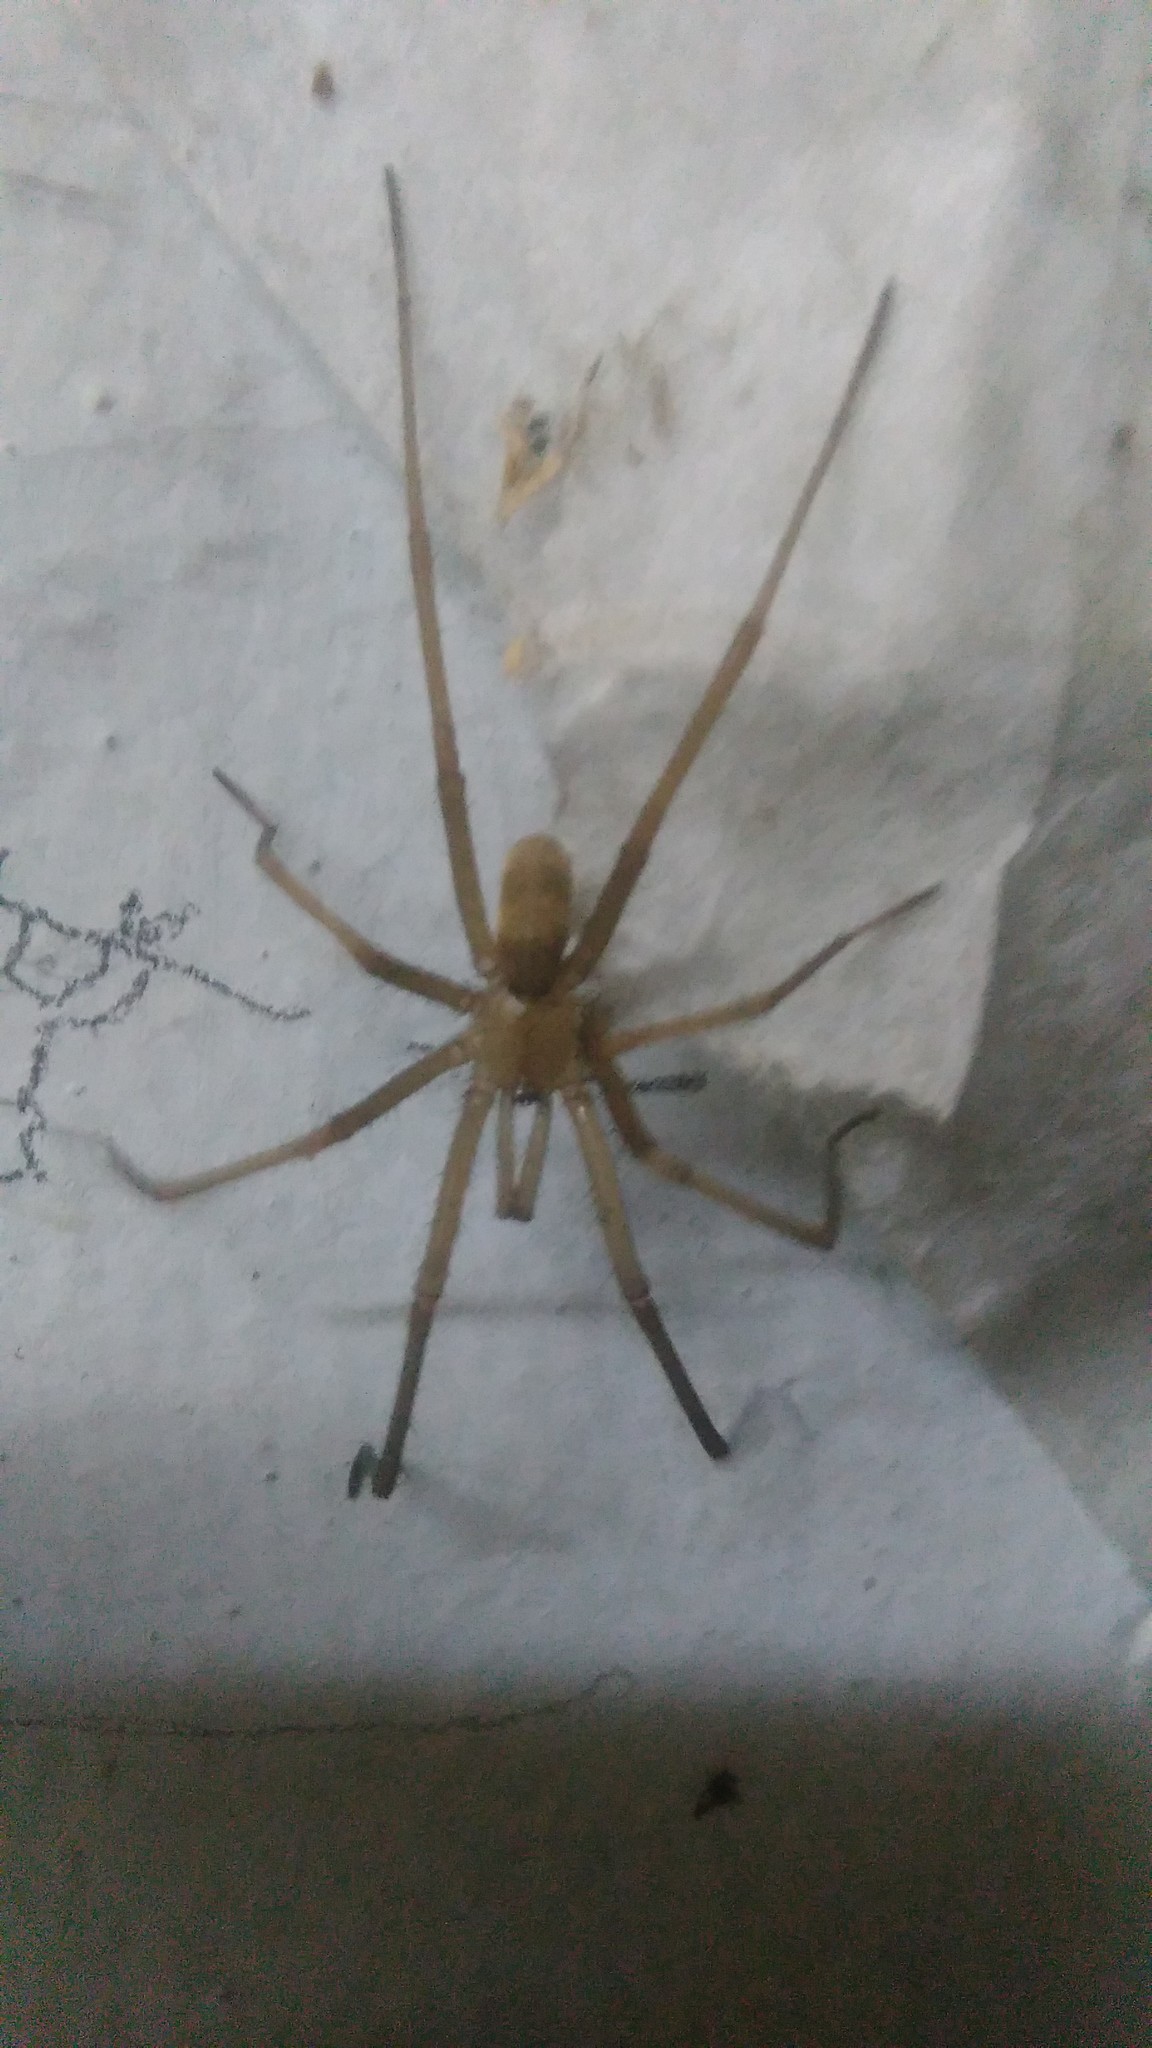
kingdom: Animalia
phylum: Arthropoda
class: Arachnida
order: Araneae
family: Filistatidae
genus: Kukulcania
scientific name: Kukulcania hibernalis
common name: Crevice weaver
